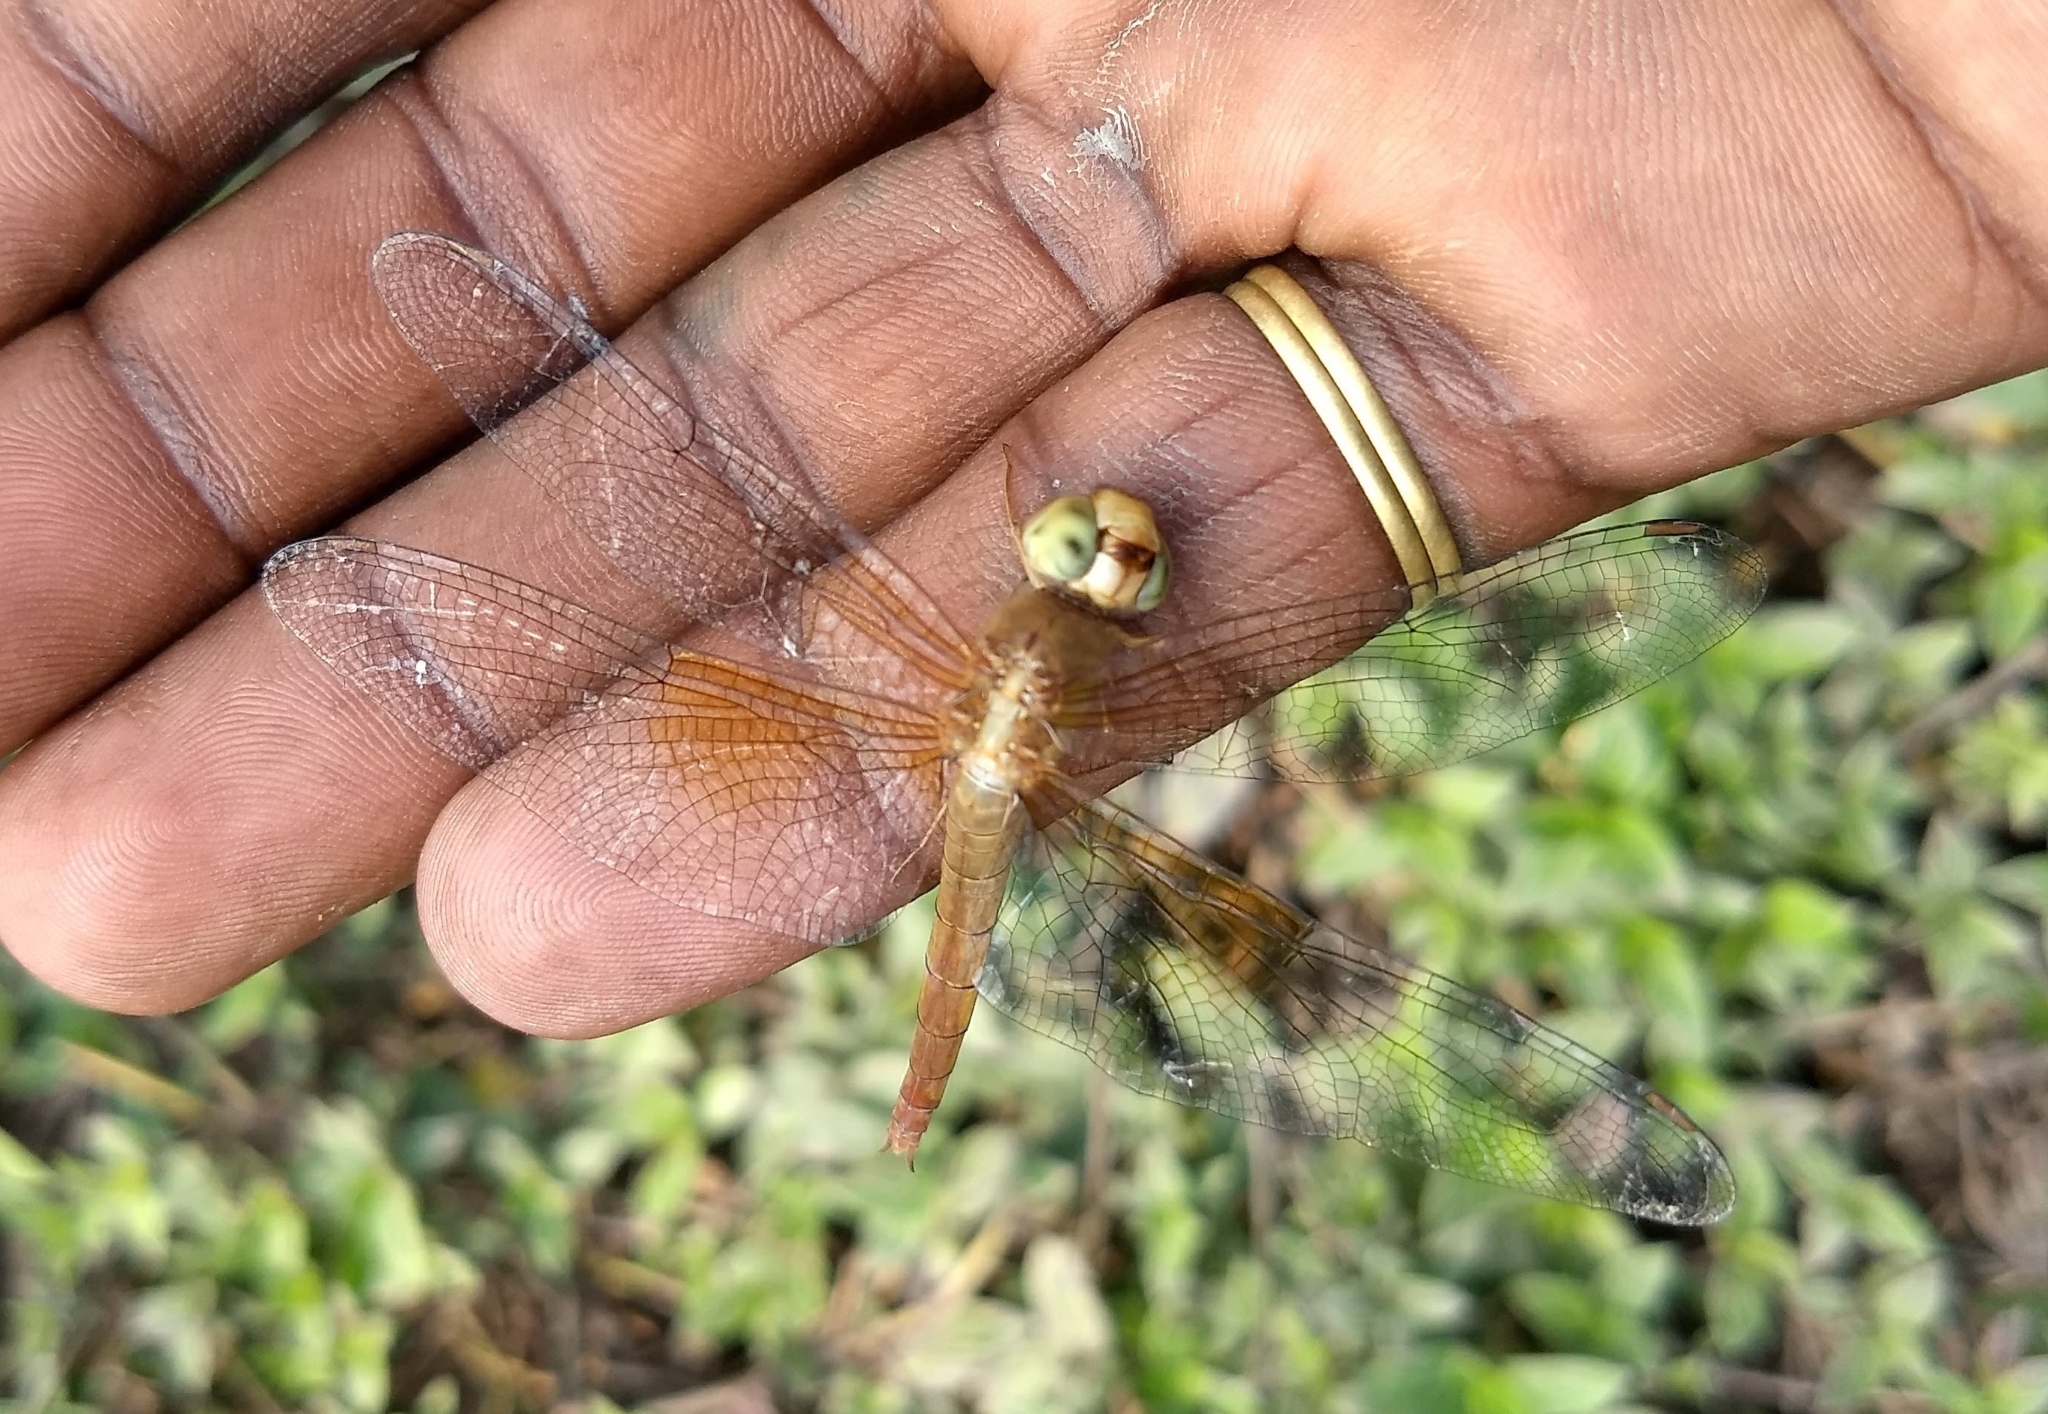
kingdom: Animalia
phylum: Arthropoda
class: Insecta
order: Odonata
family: Libellulidae
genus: Tholymis
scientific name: Tholymis tillarga
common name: Coral-tailed cloud wing
